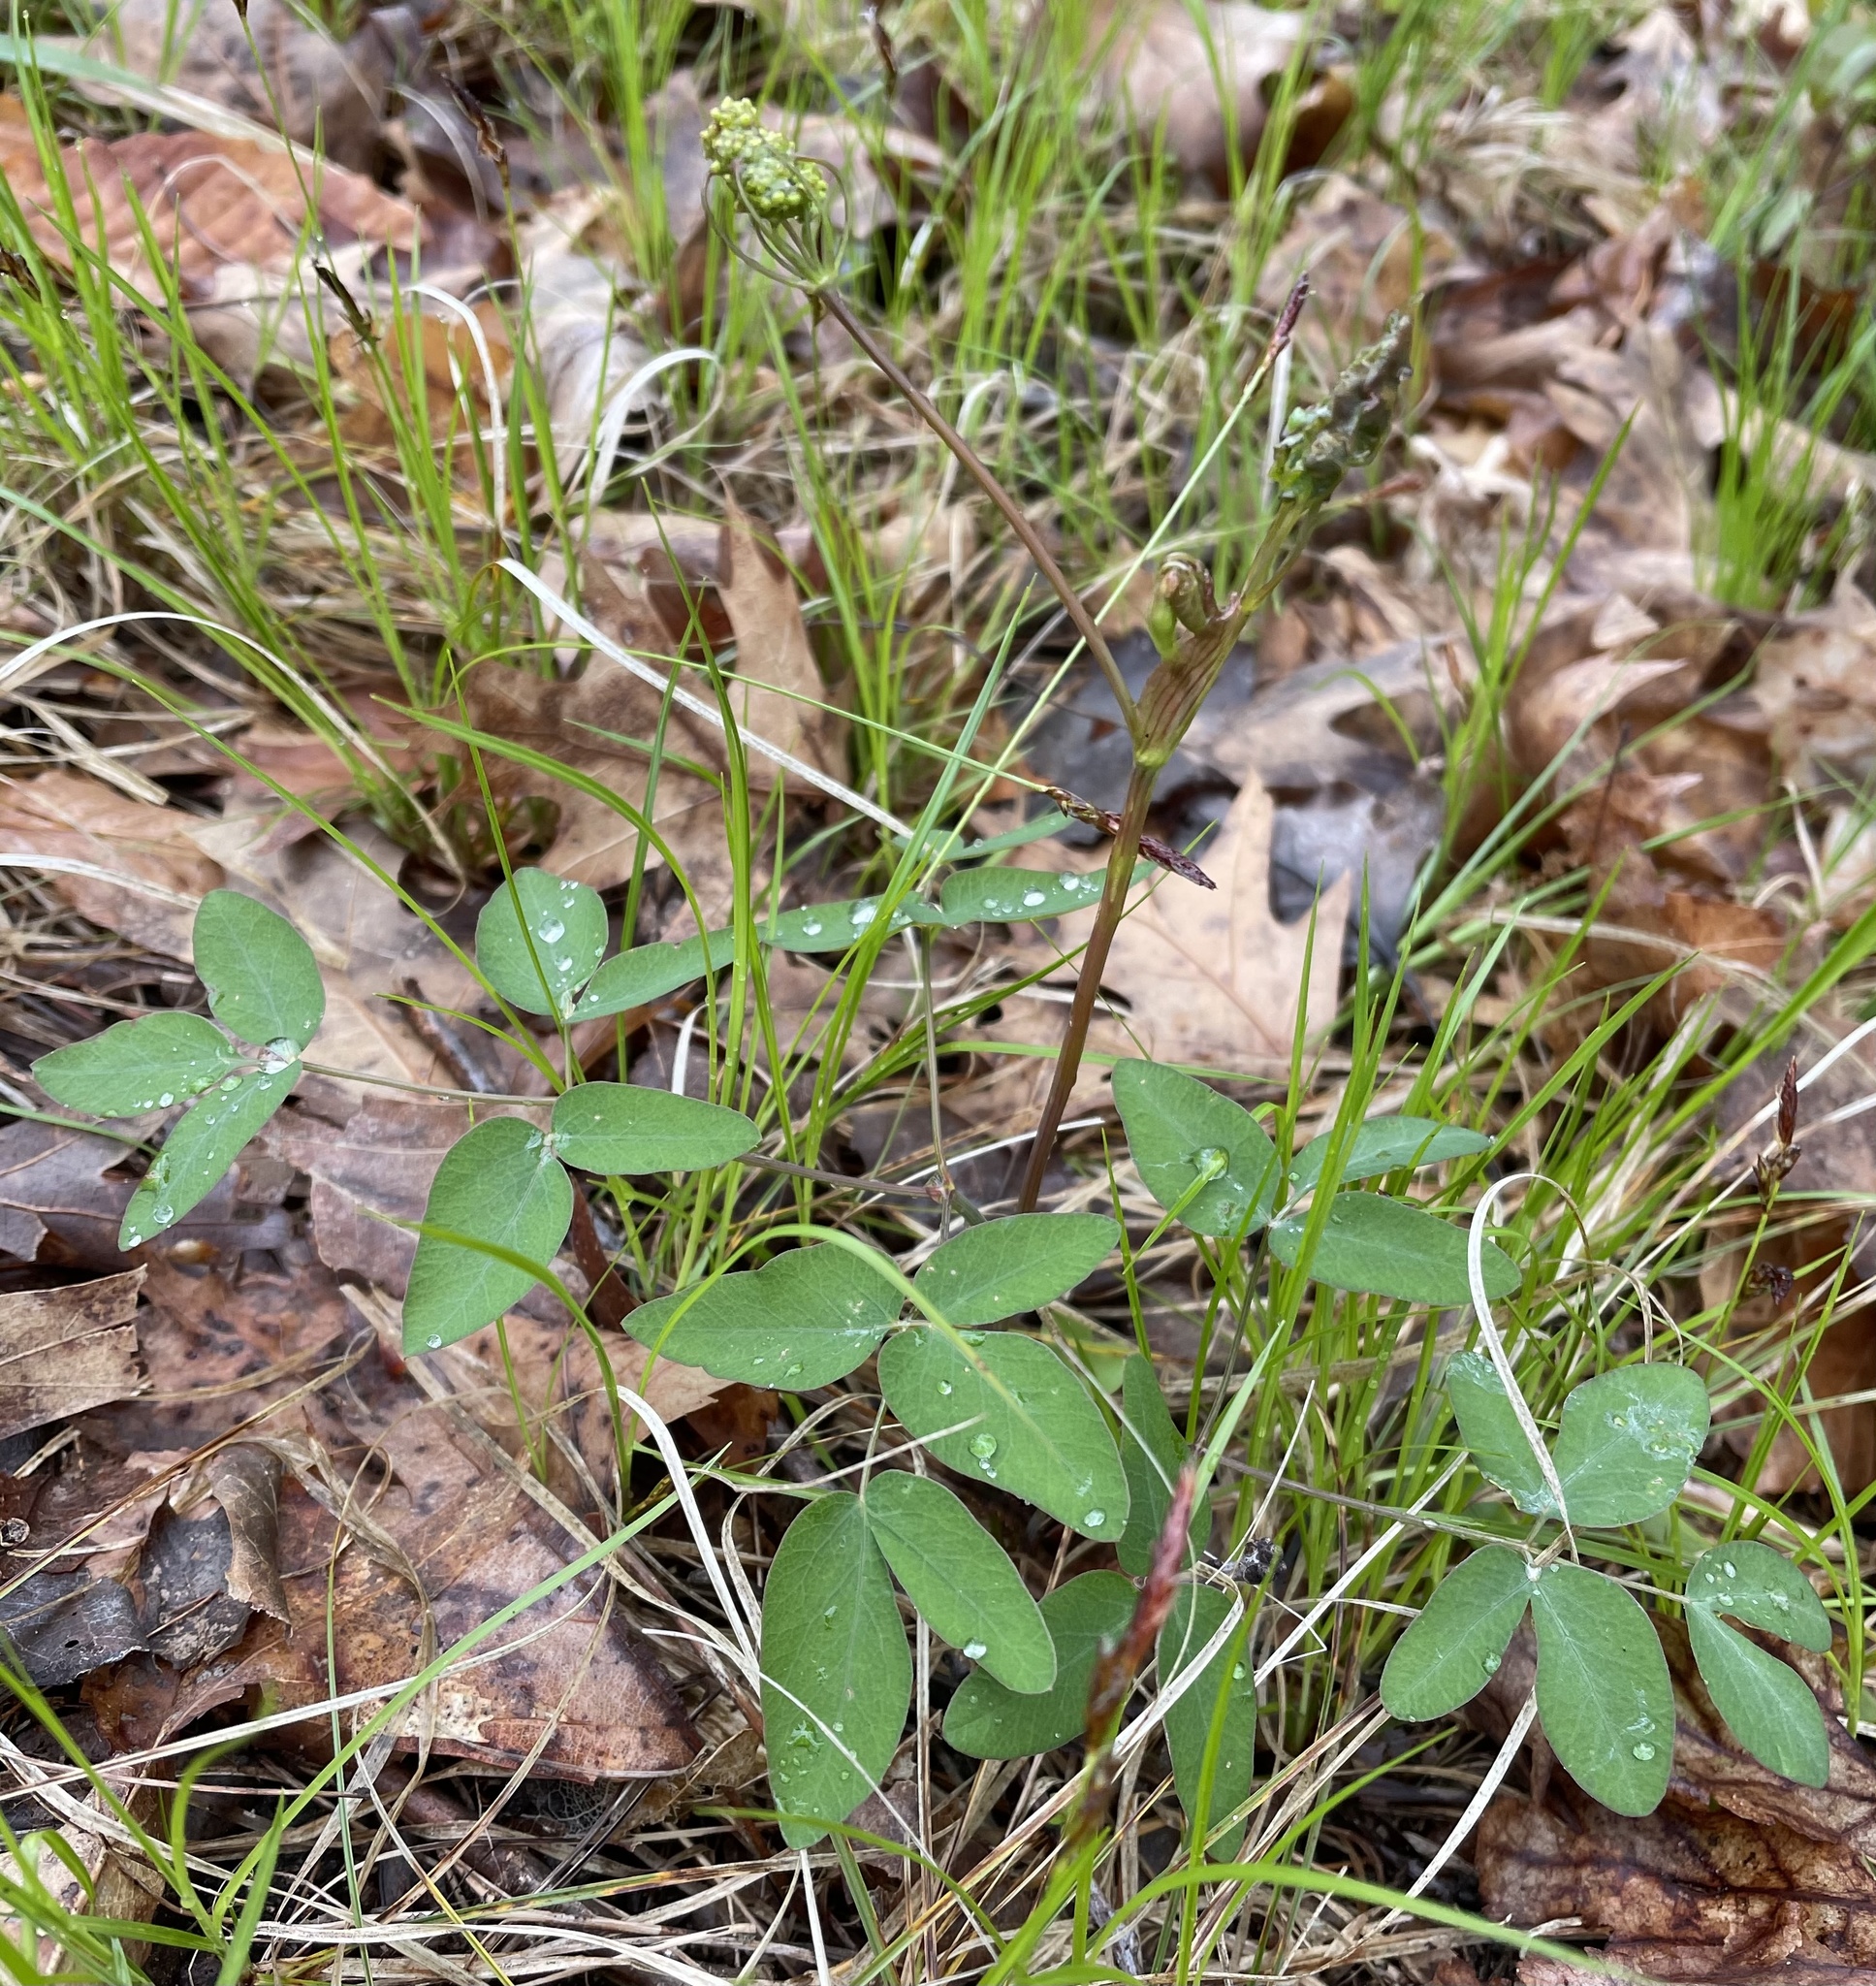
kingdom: Plantae
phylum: Tracheophyta
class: Magnoliopsida
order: Apiales
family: Apiaceae
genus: Taenidia
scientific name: Taenidia integerrima
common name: Golden alexander
